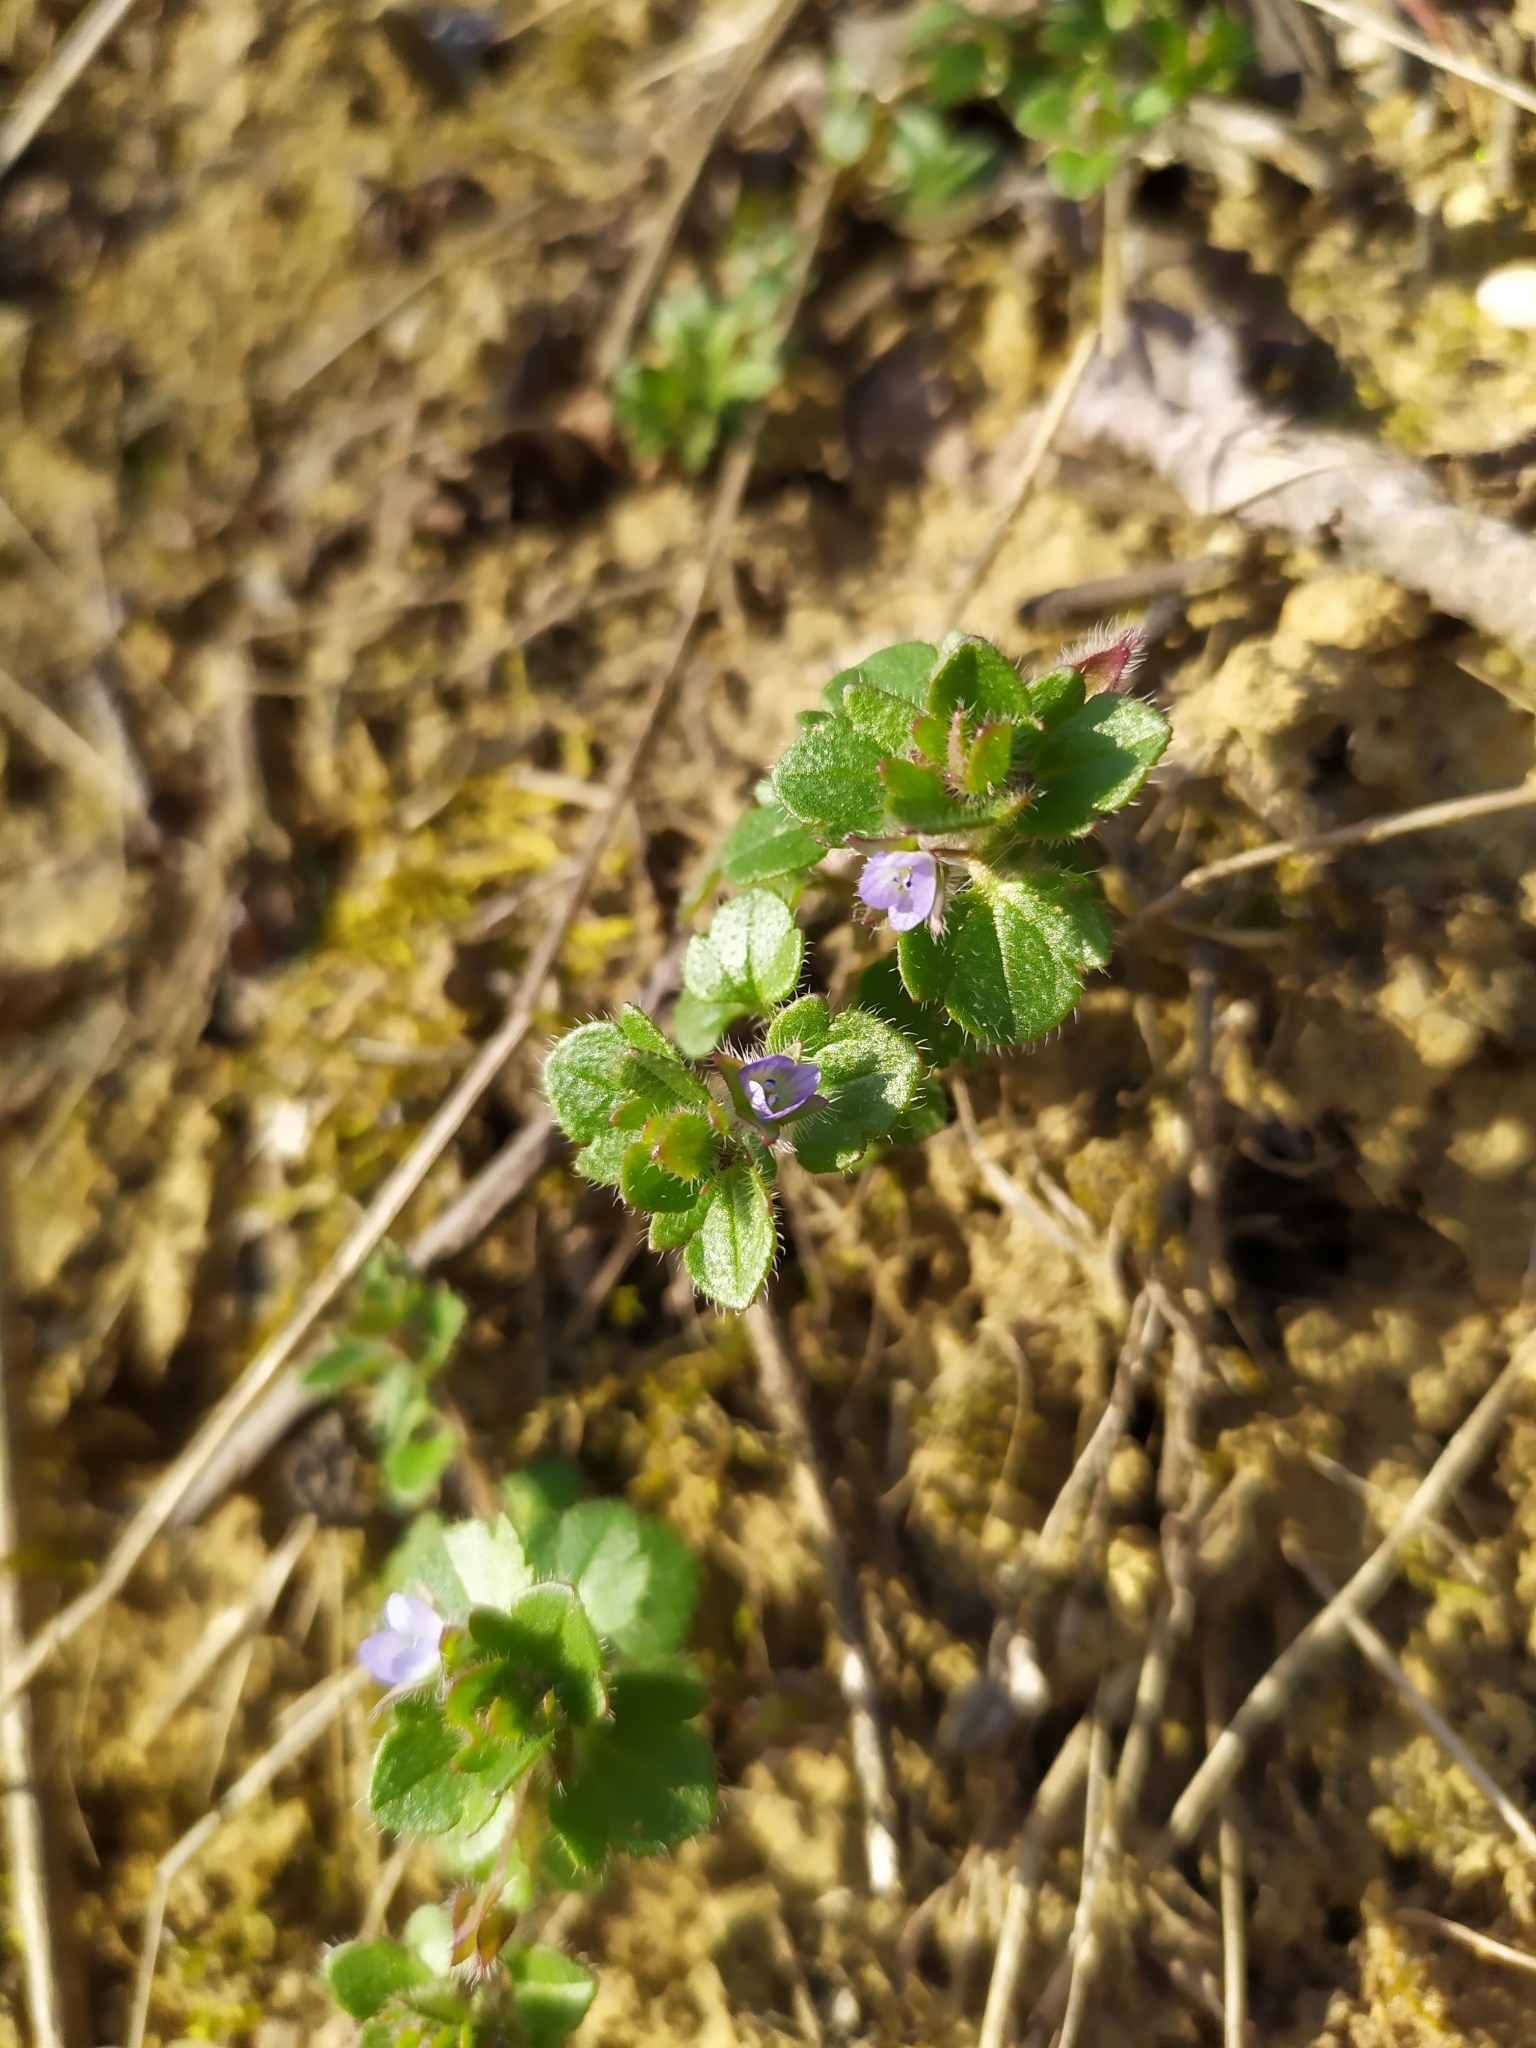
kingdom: Plantae
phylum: Tracheophyta
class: Magnoliopsida
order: Lamiales
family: Plantaginaceae
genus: Veronica
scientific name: Veronica sublobata
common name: False ivy-leaved speedwell
